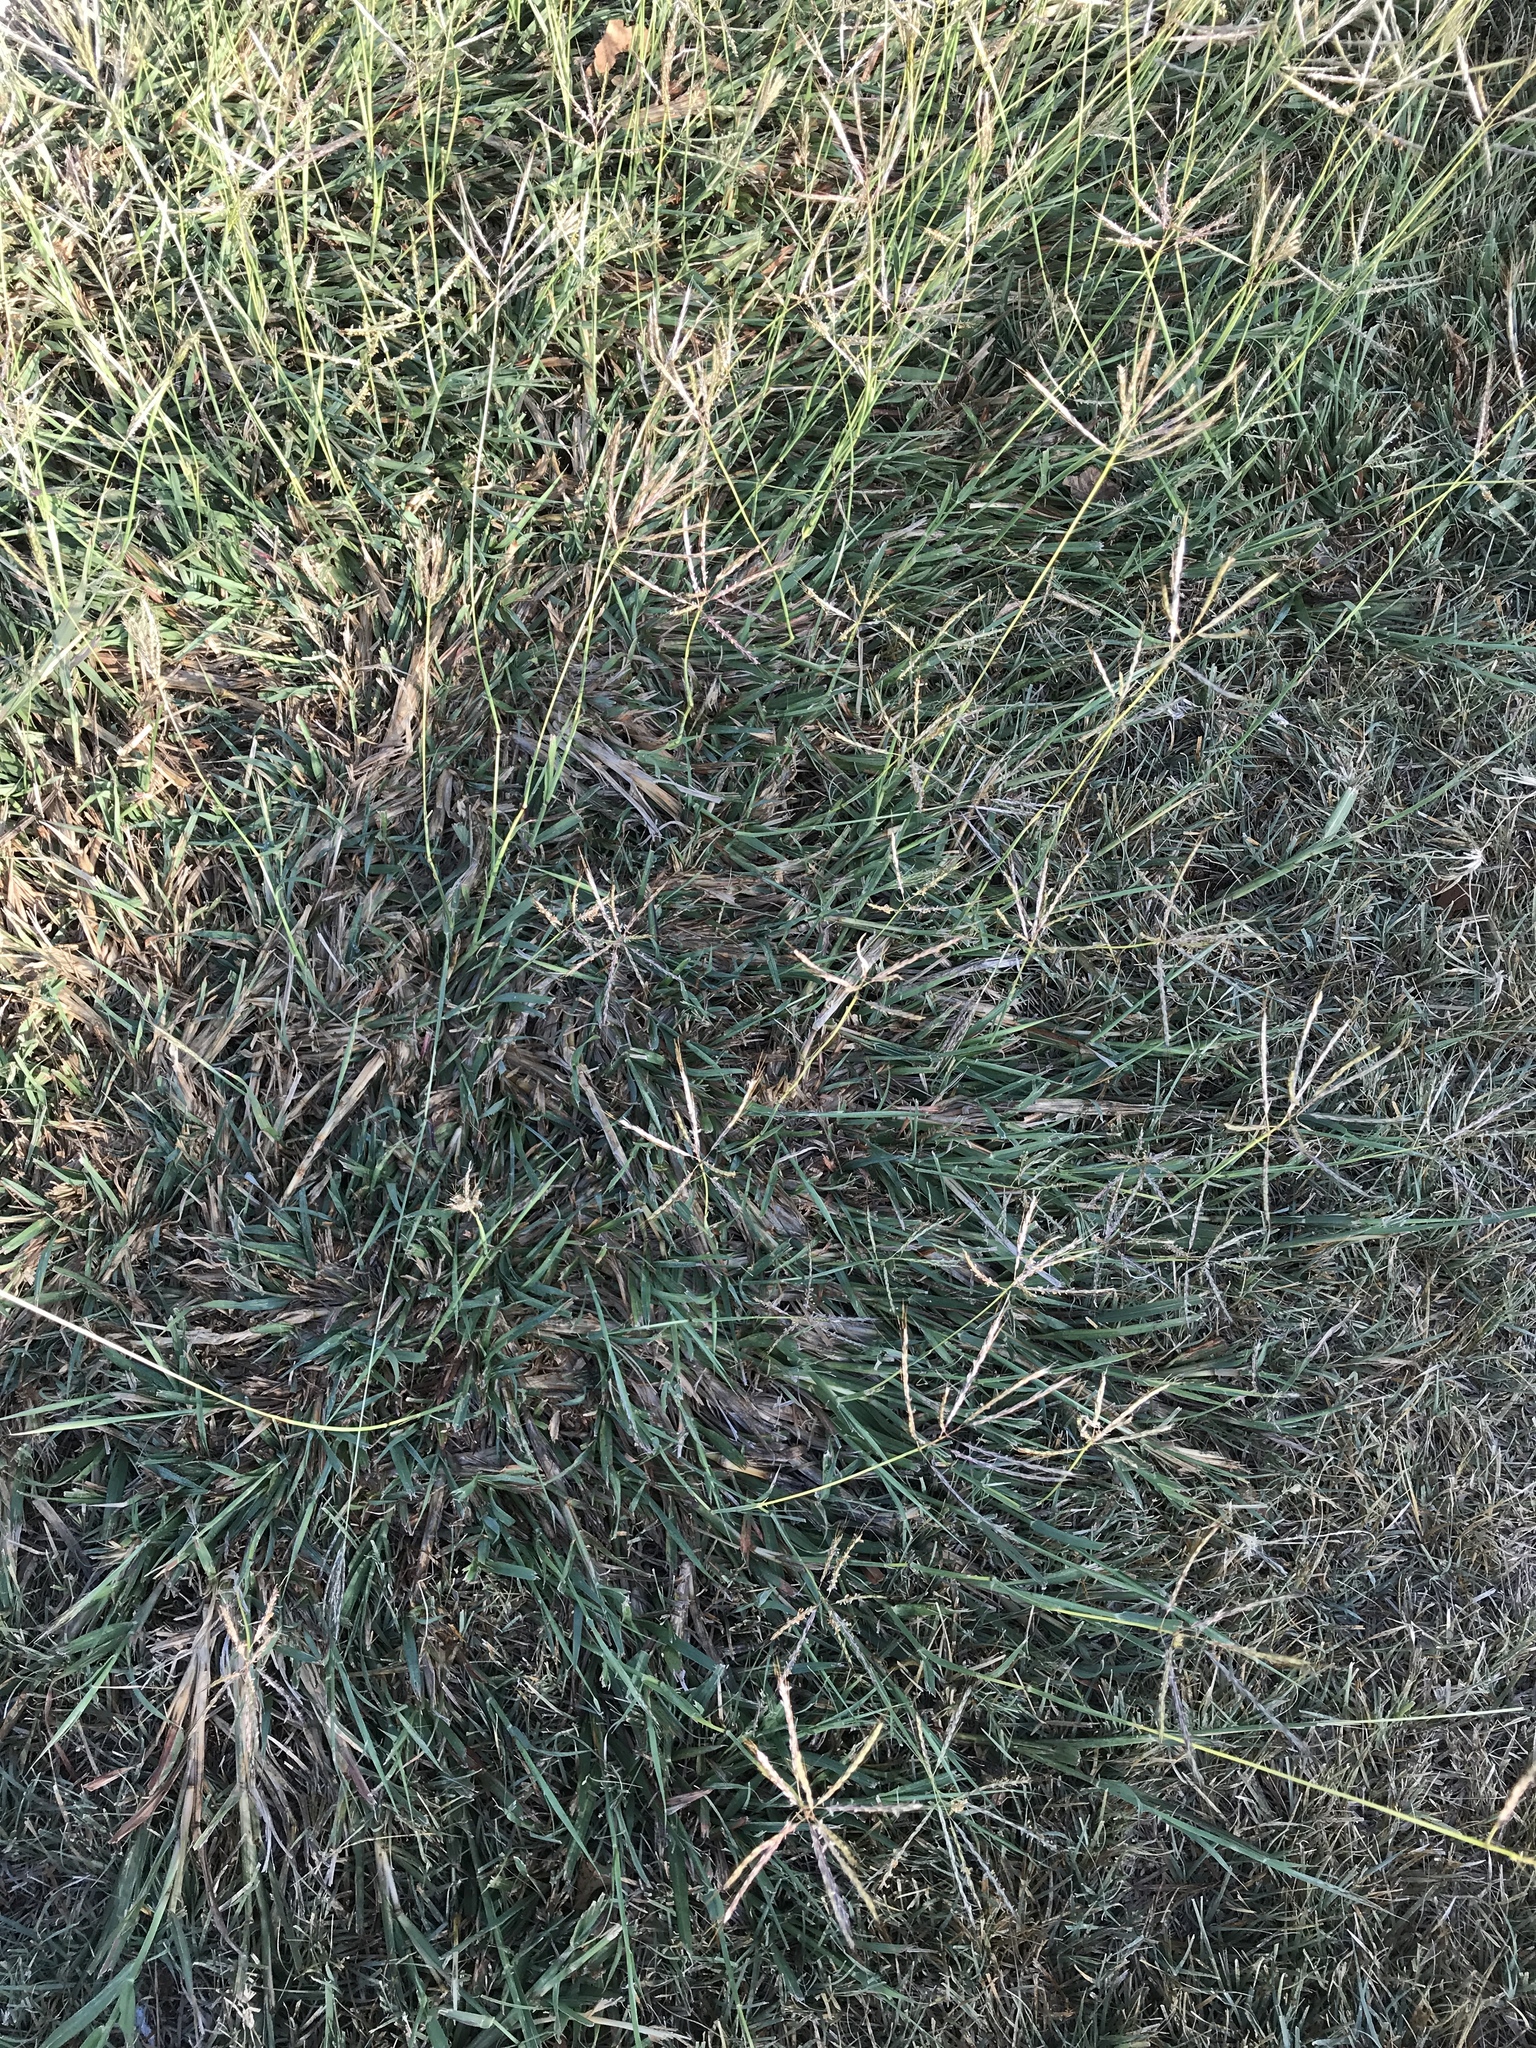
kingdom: Plantae
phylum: Tracheophyta
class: Liliopsida
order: Poales
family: Poaceae
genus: Bothriochloa
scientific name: Bothriochloa ischaemum
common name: Yellow bluestem
